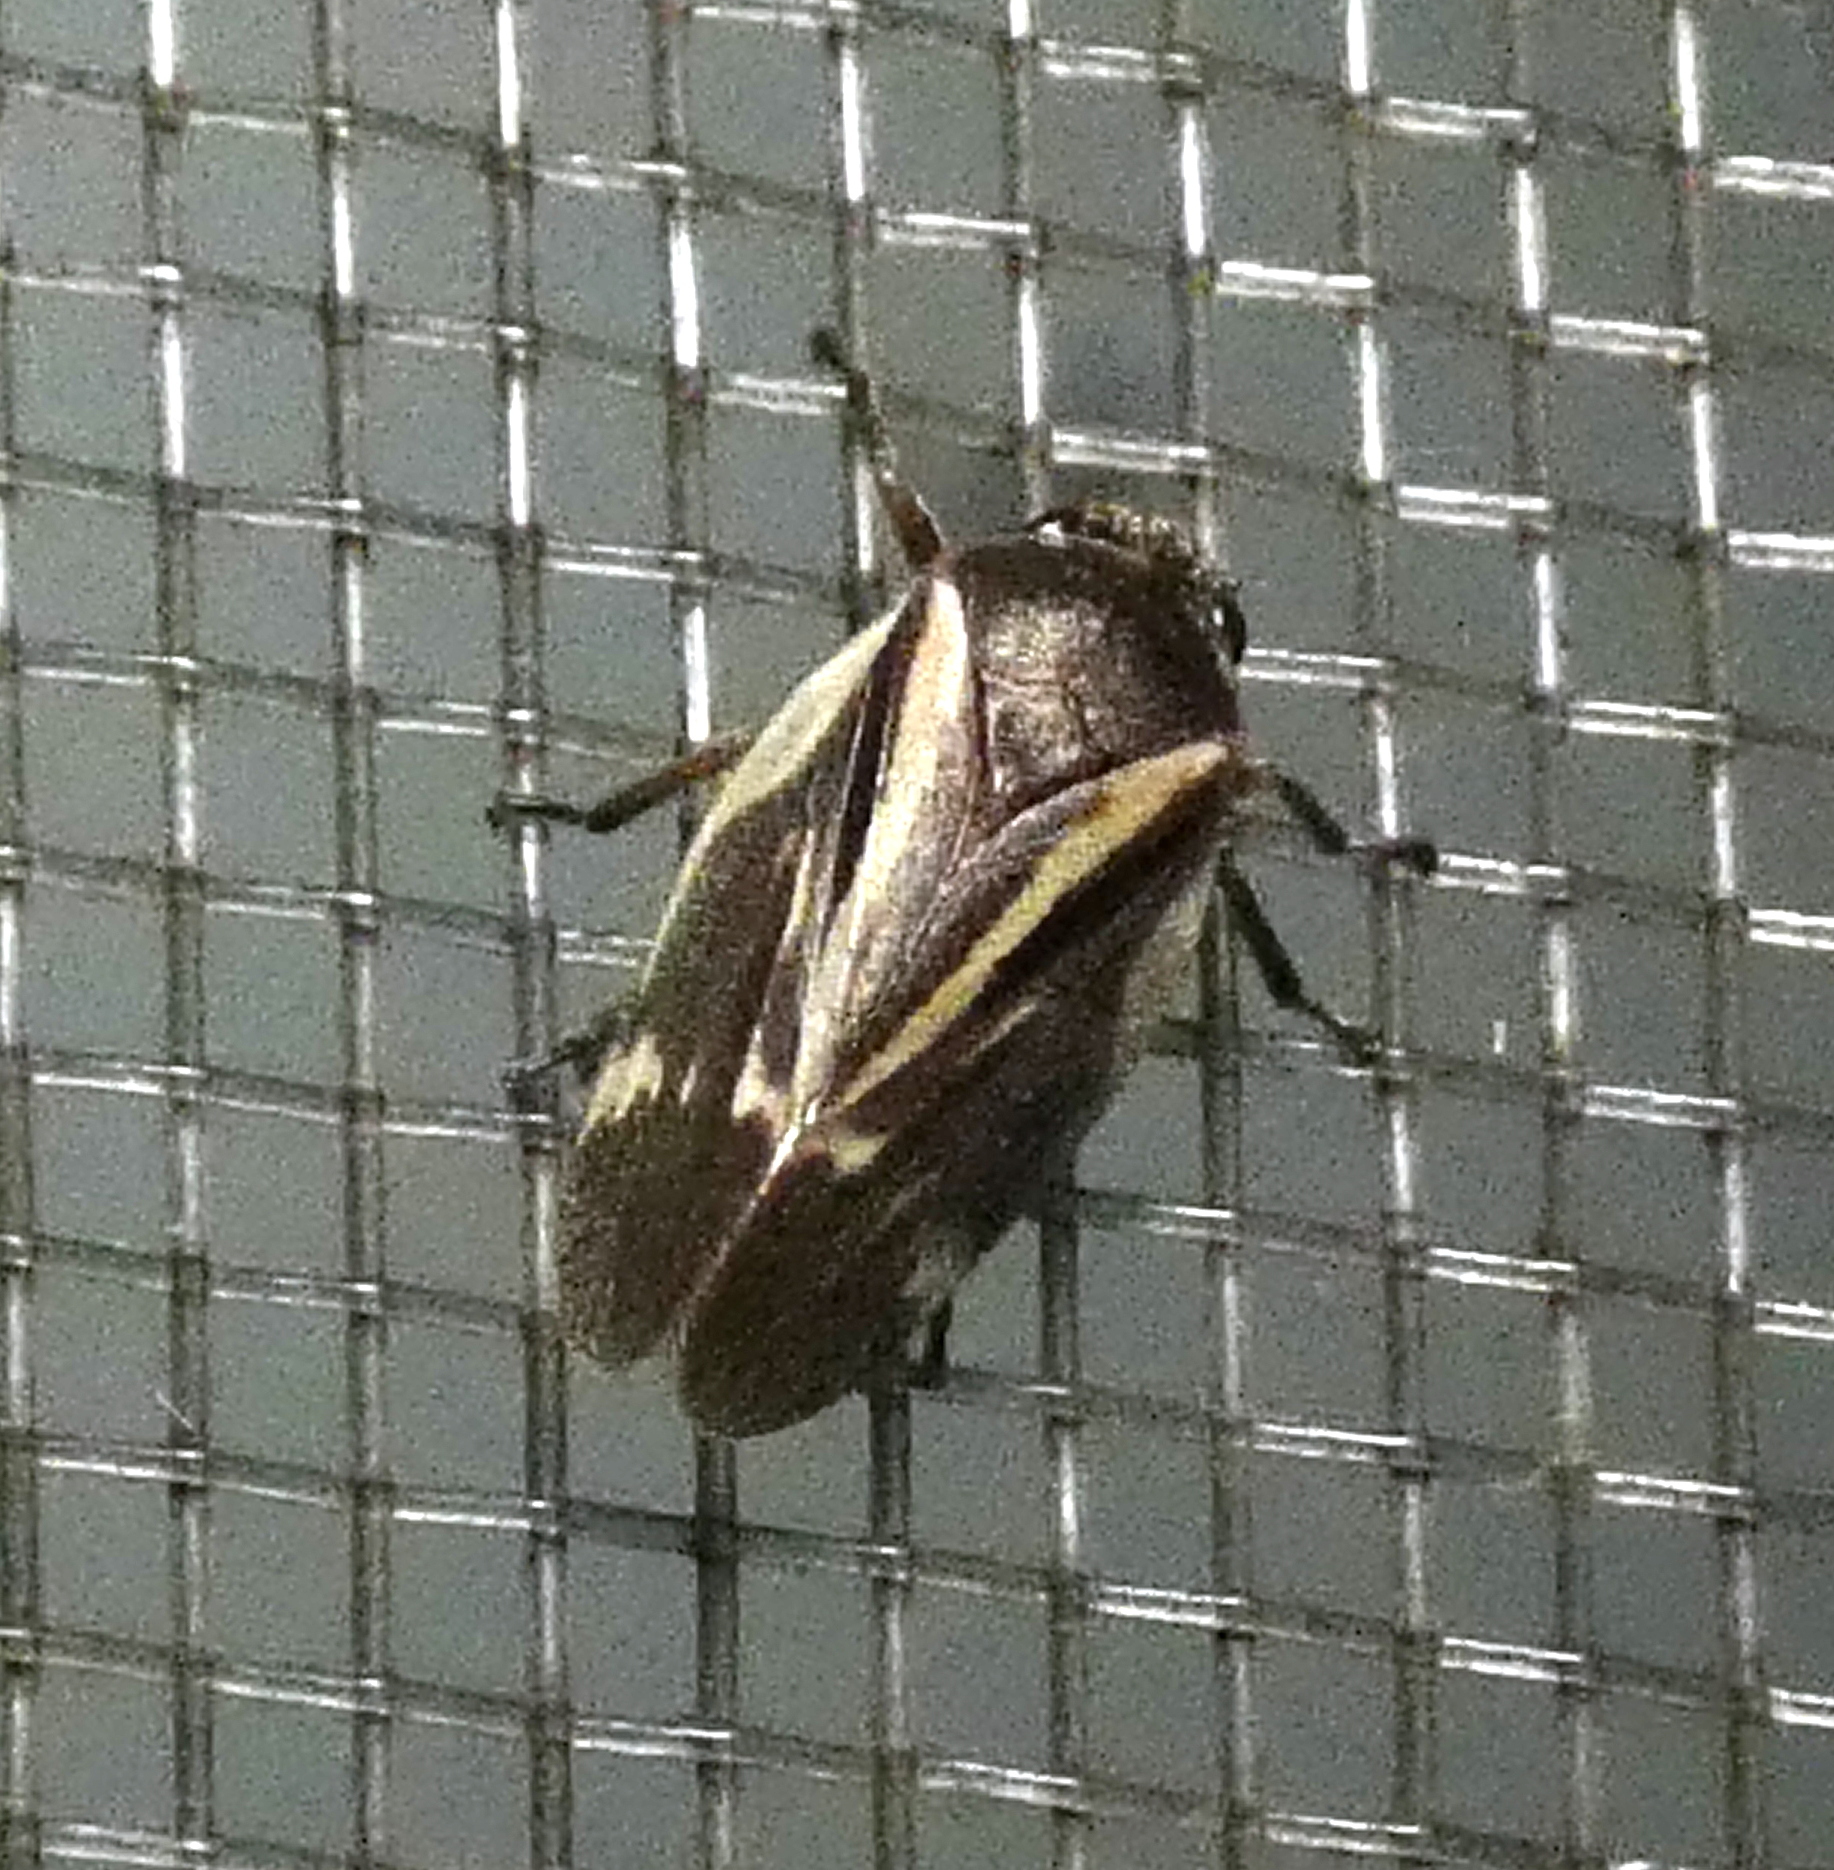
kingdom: Animalia
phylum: Arthropoda
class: Insecta
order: Hemiptera
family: Cercopidae
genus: Deois
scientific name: Deois incompleta
